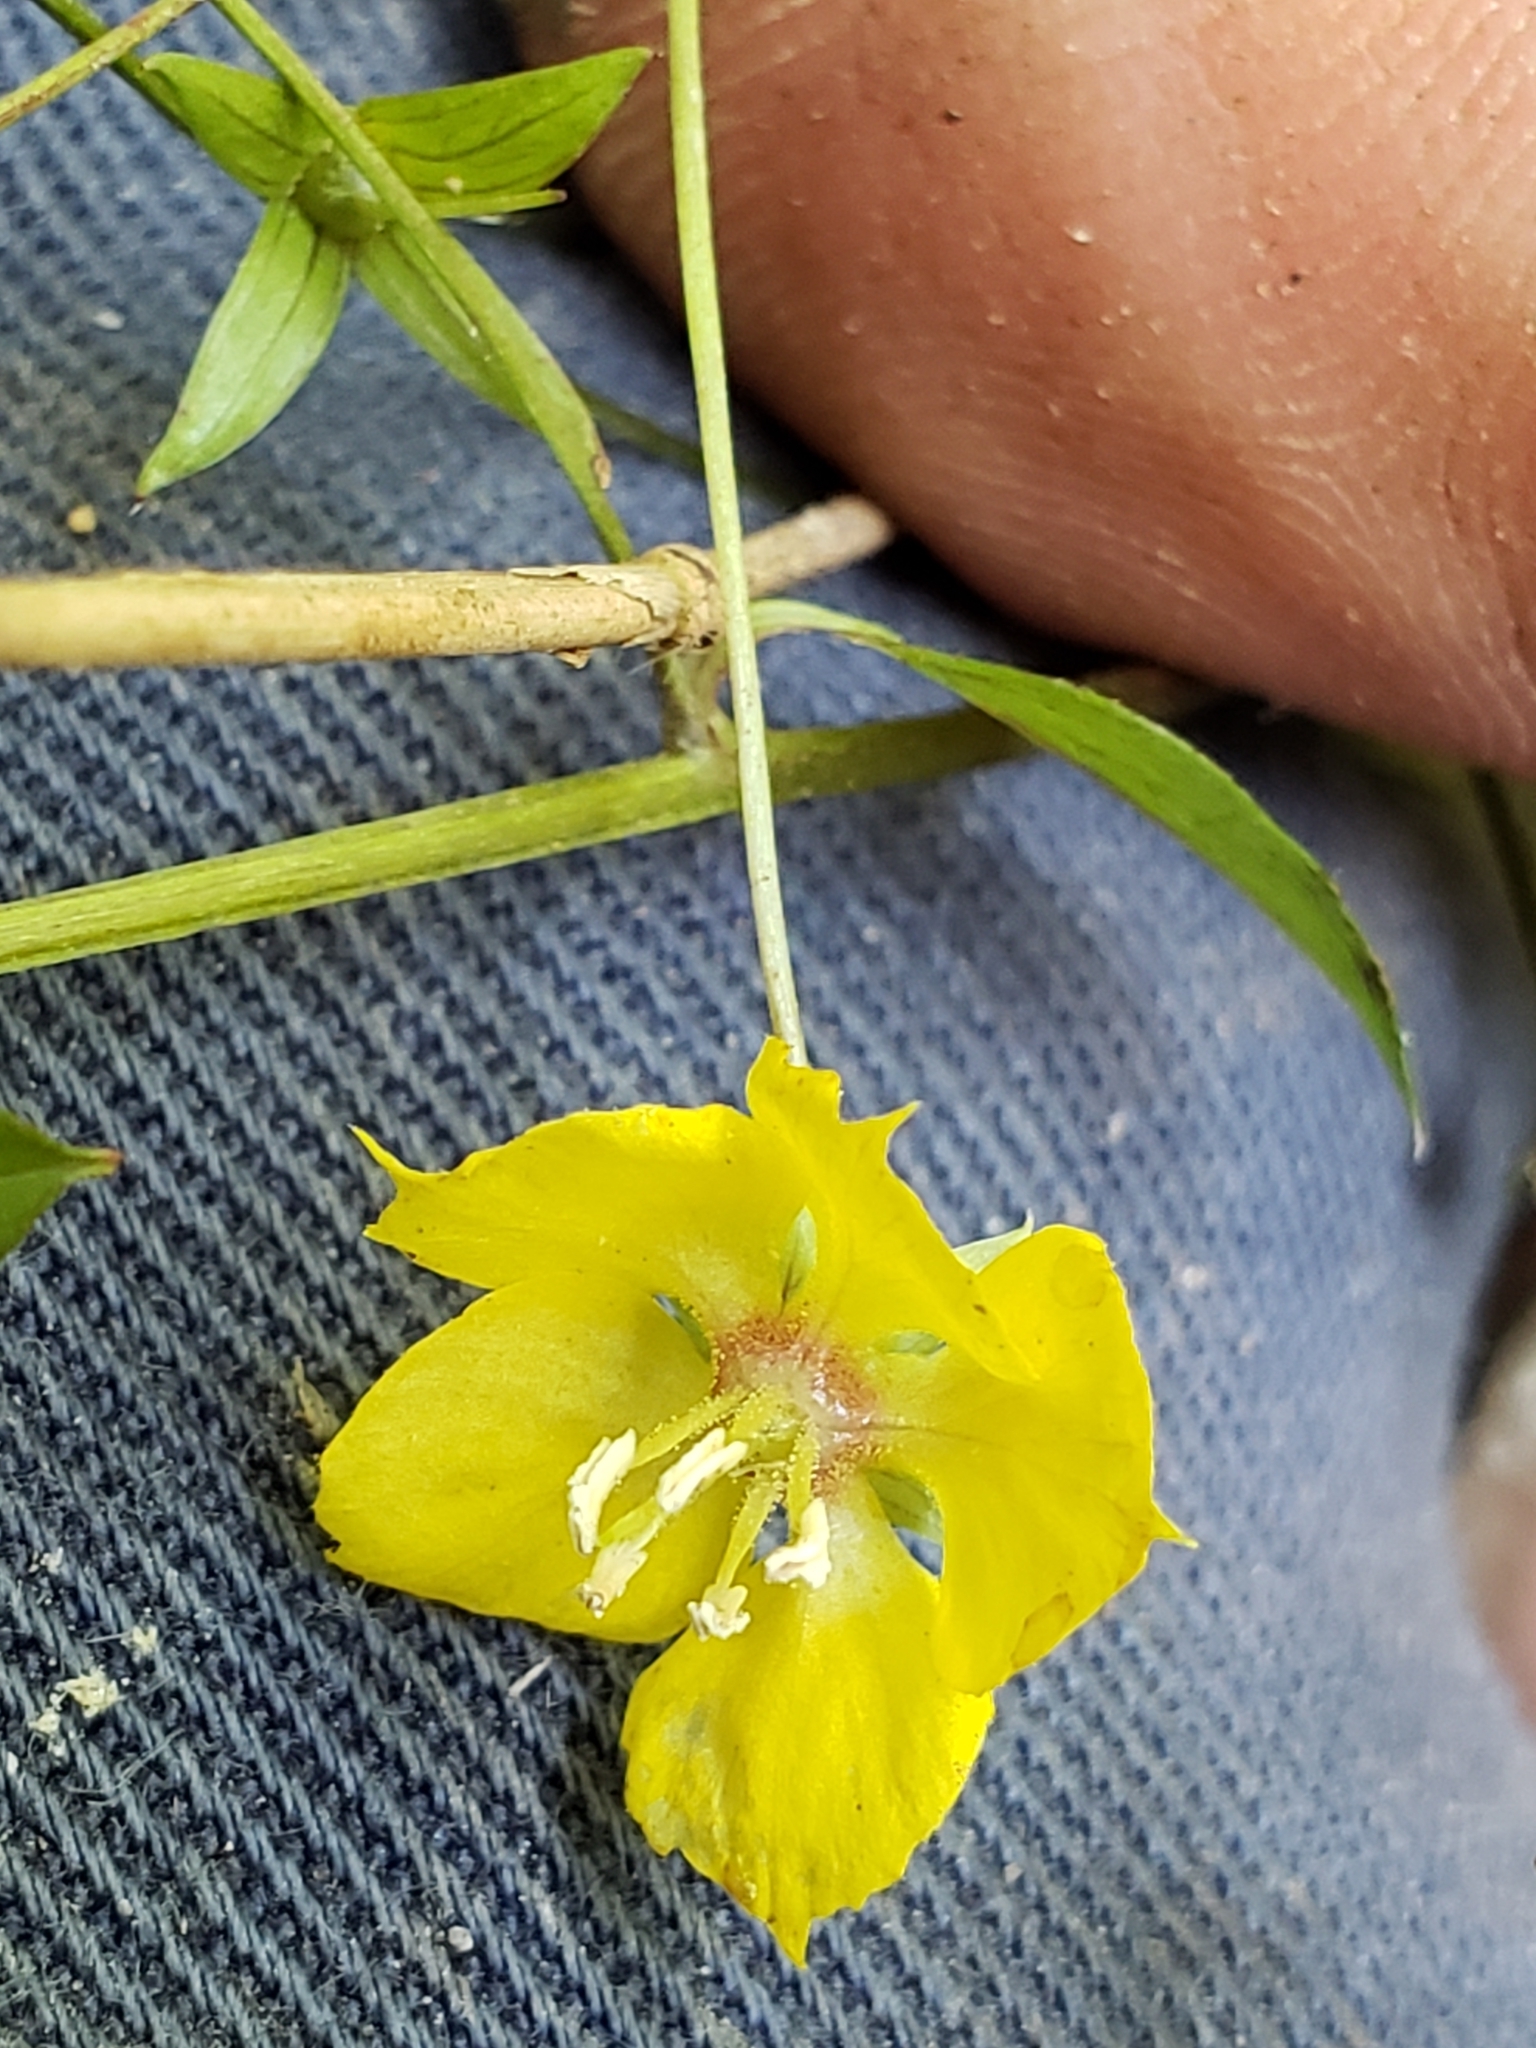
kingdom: Plantae
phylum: Tracheophyta
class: Magnoliopsida
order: Ericales
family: Primulaceae
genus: Lysimachia
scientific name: Lysimachia ciliata
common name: Fringed loosestrife
